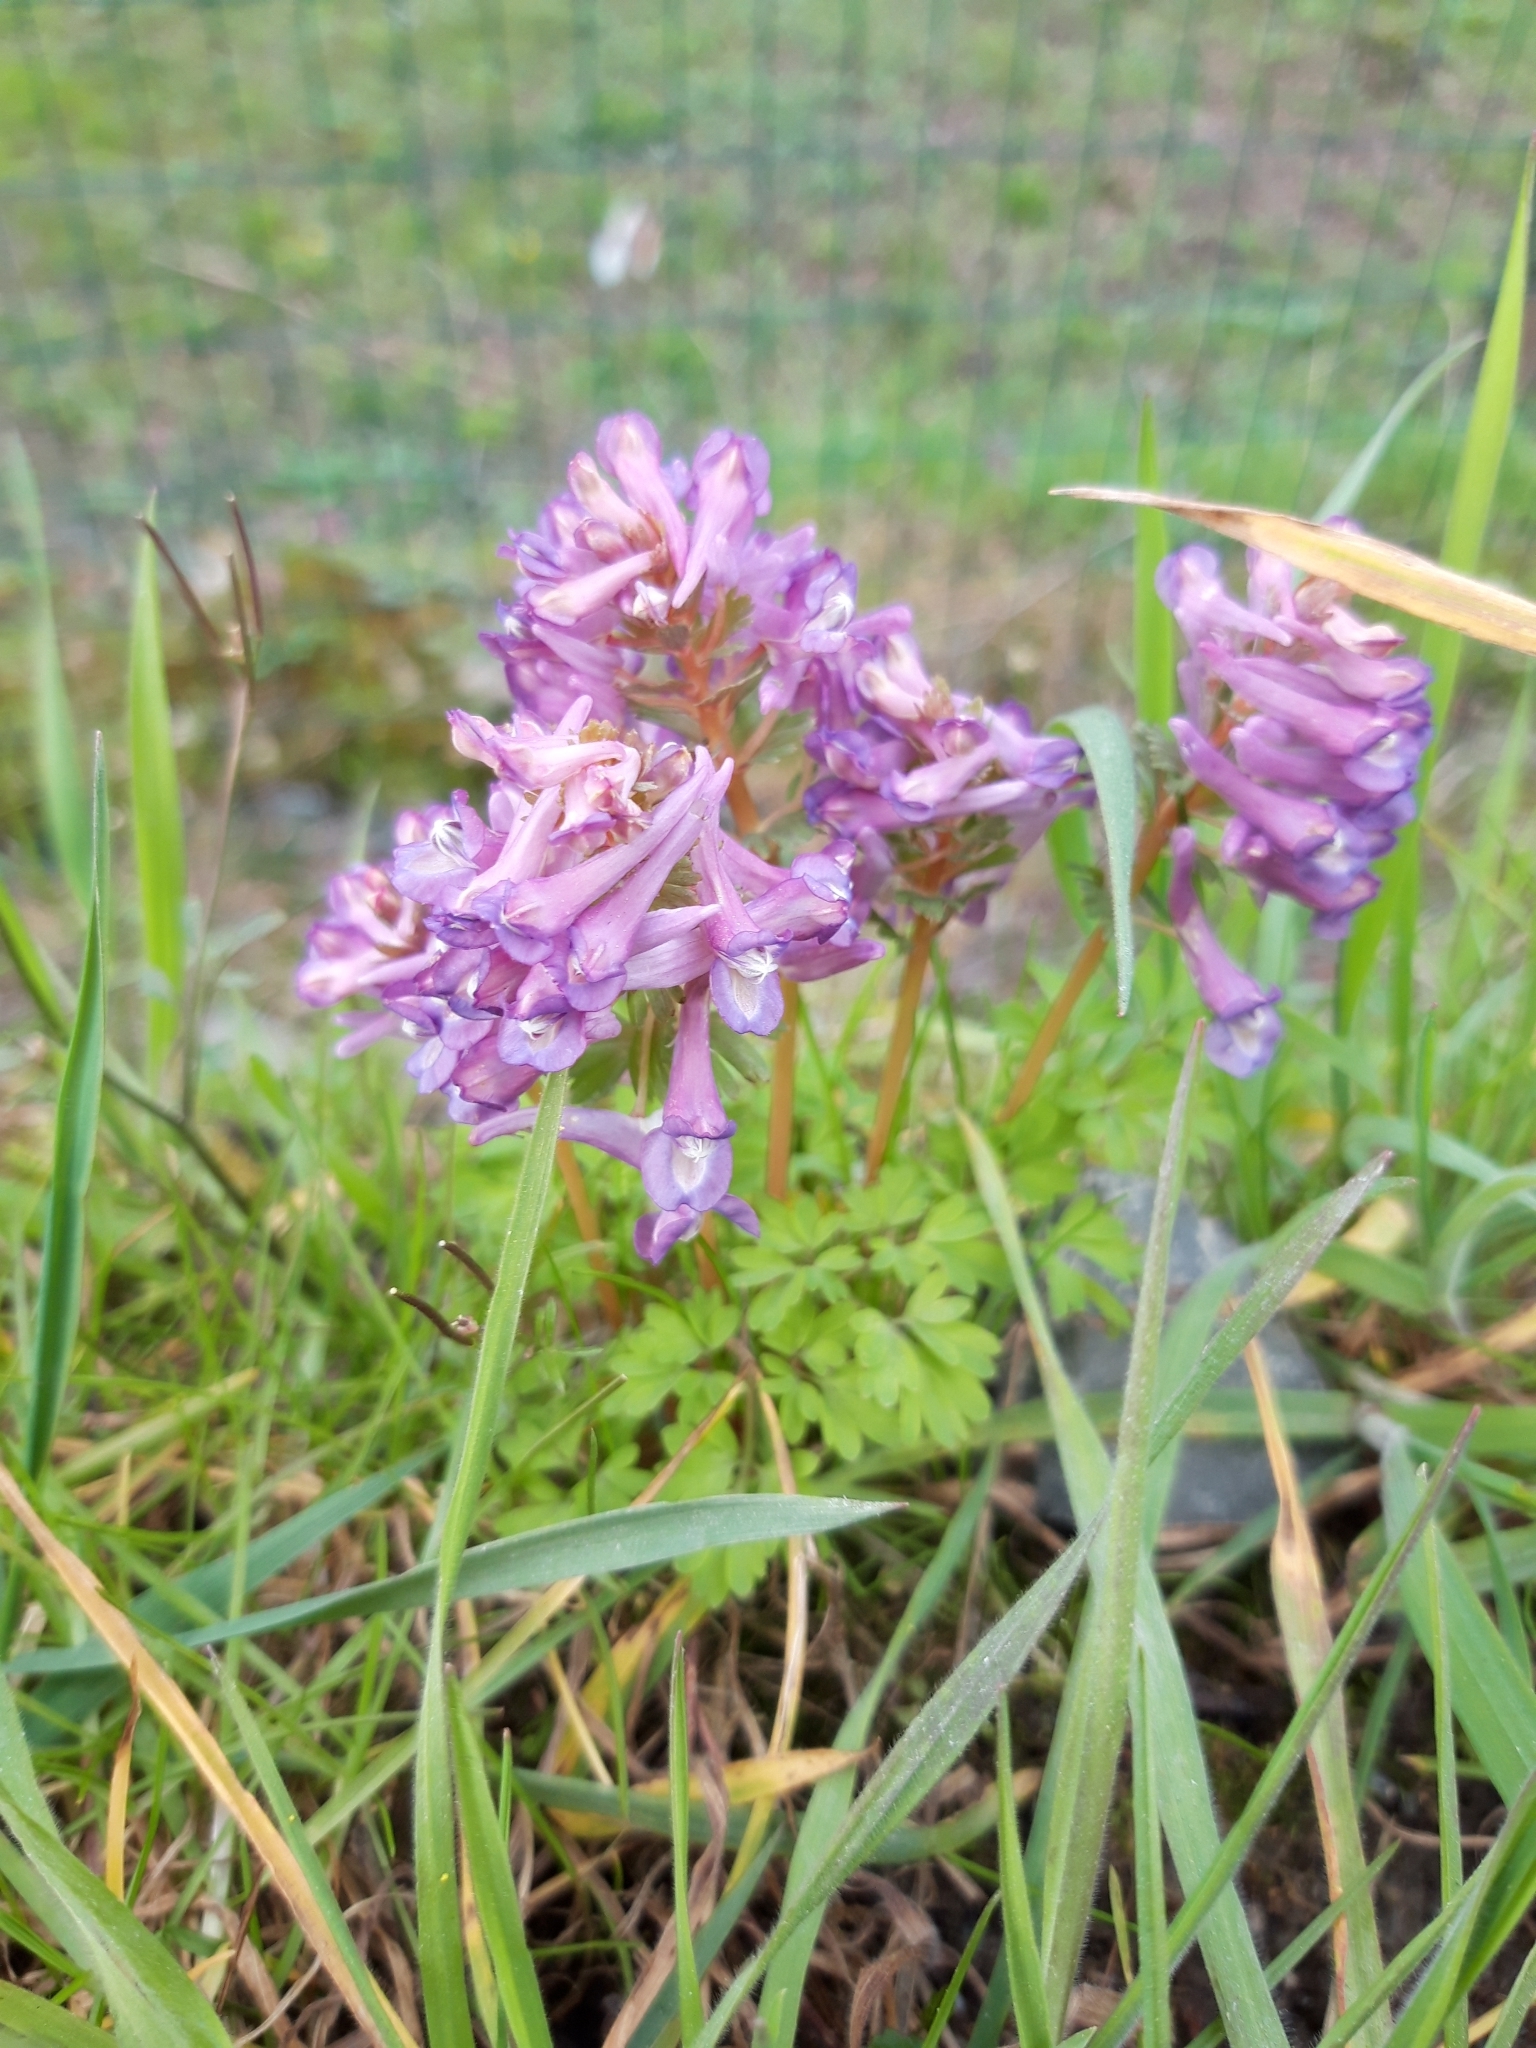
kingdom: Plantae
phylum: Tracheophyta
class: Magnoliopsida
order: Ranunculales
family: Papaveraceae
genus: Corydalis
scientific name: Corydalis solida
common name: Bird-in-a-bush
